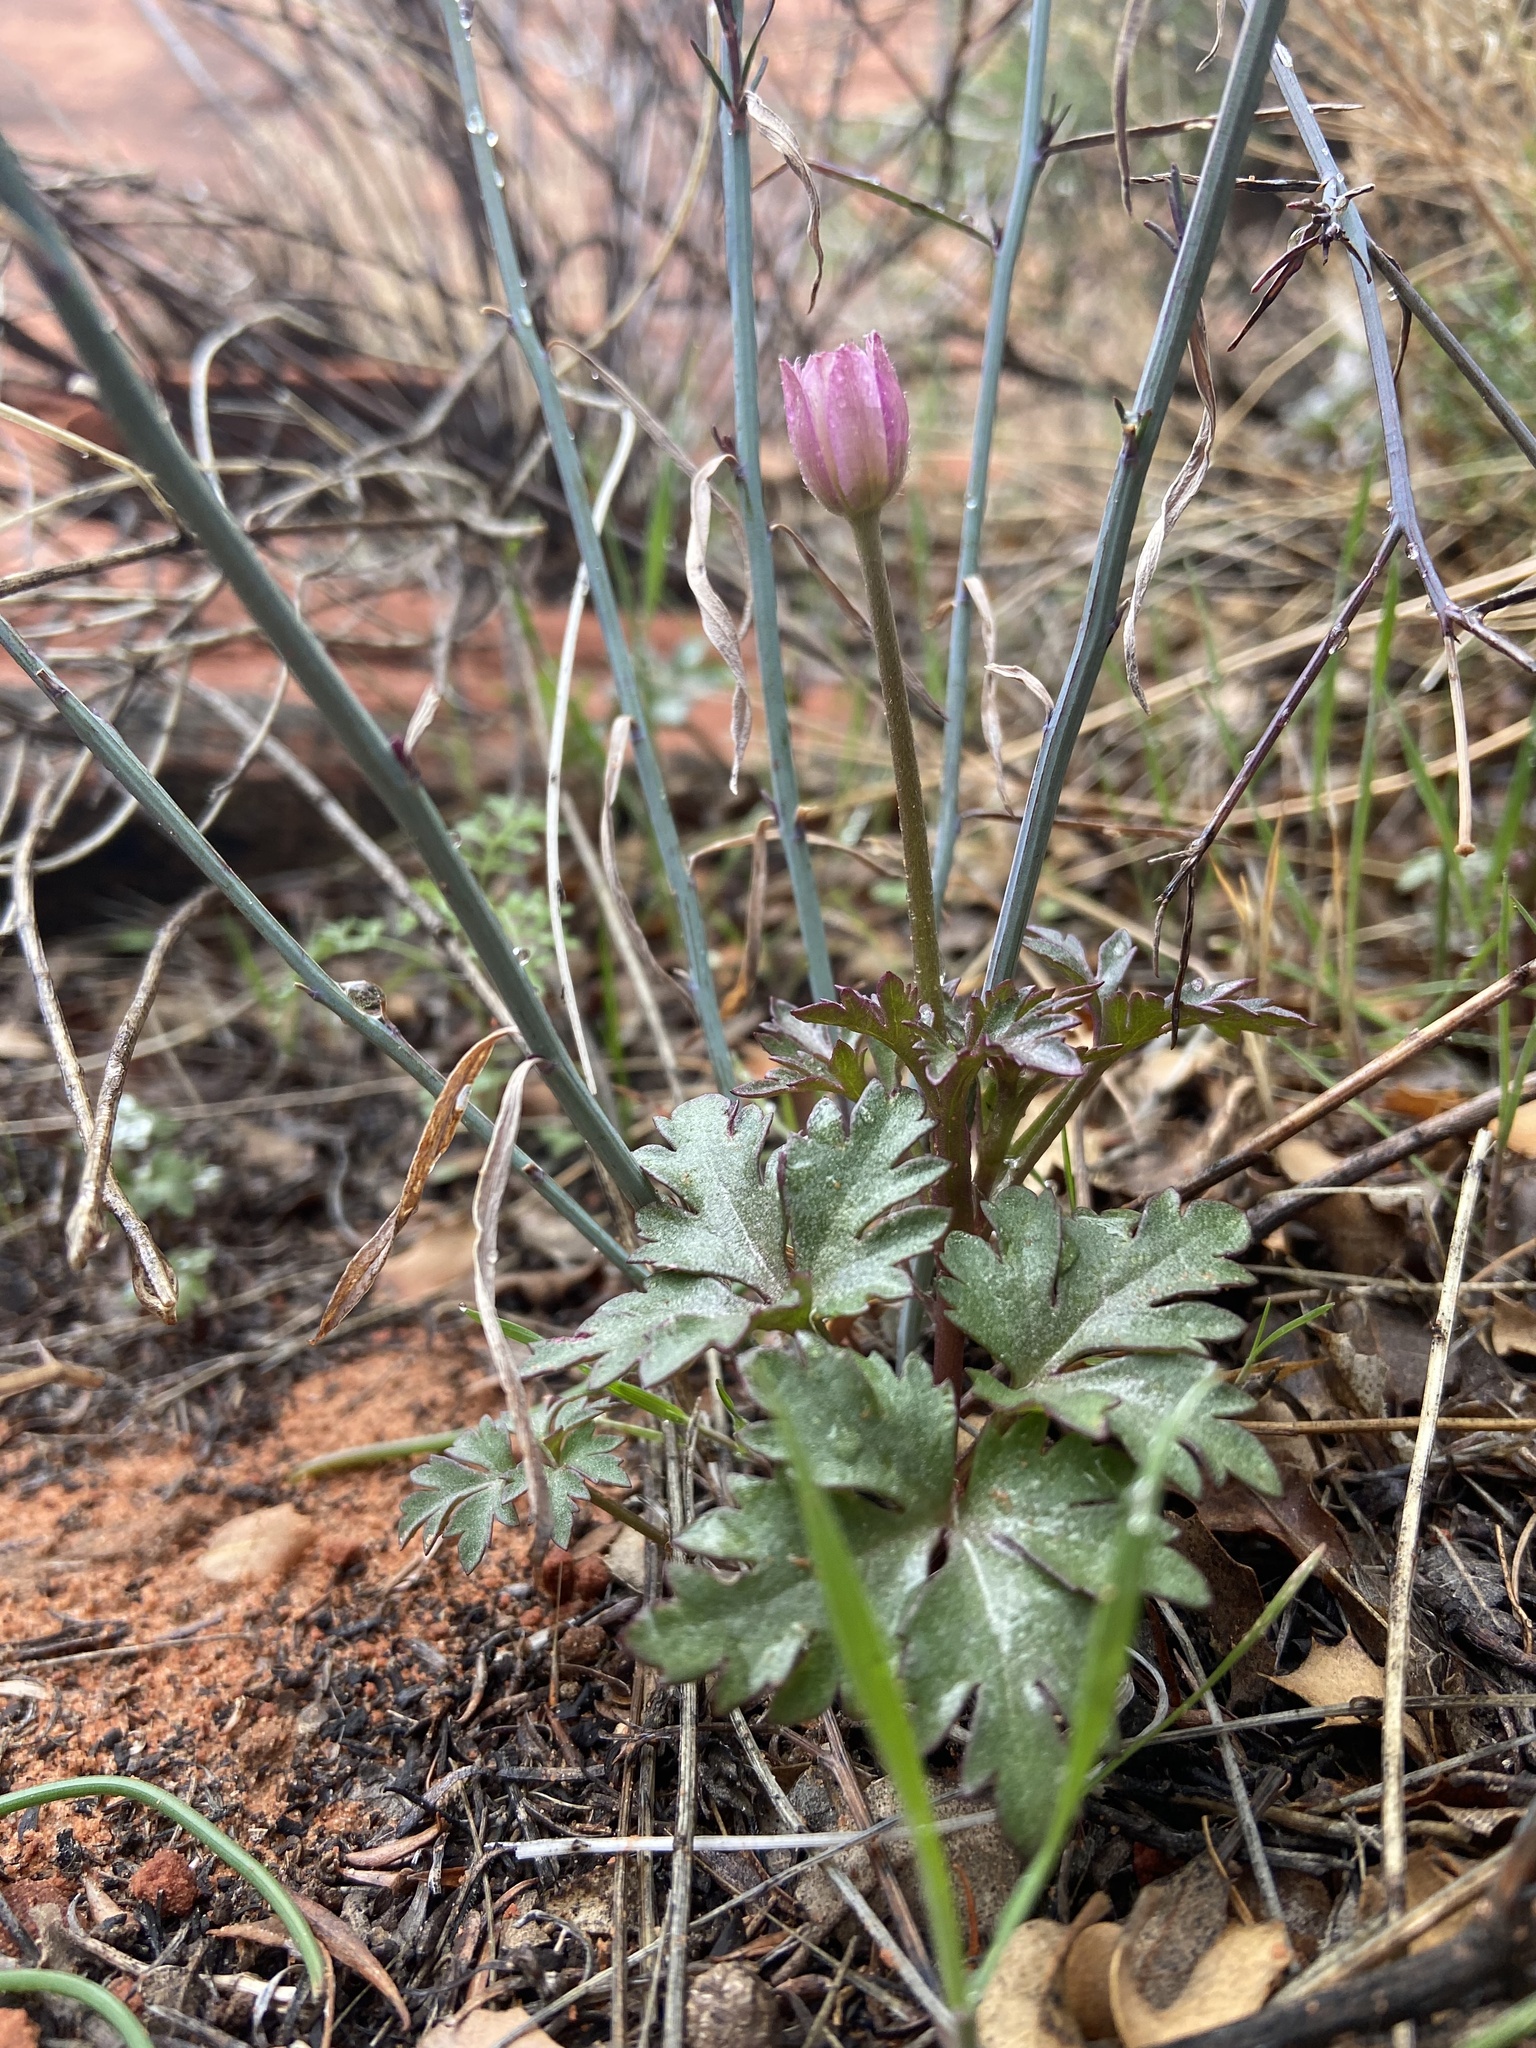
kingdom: Plantae
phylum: Tracheophyta
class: Magnoliopsida
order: Ranunculales
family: Ranunculaceae
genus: Anemone
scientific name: Anemone tuberosa
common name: Desert anemone
